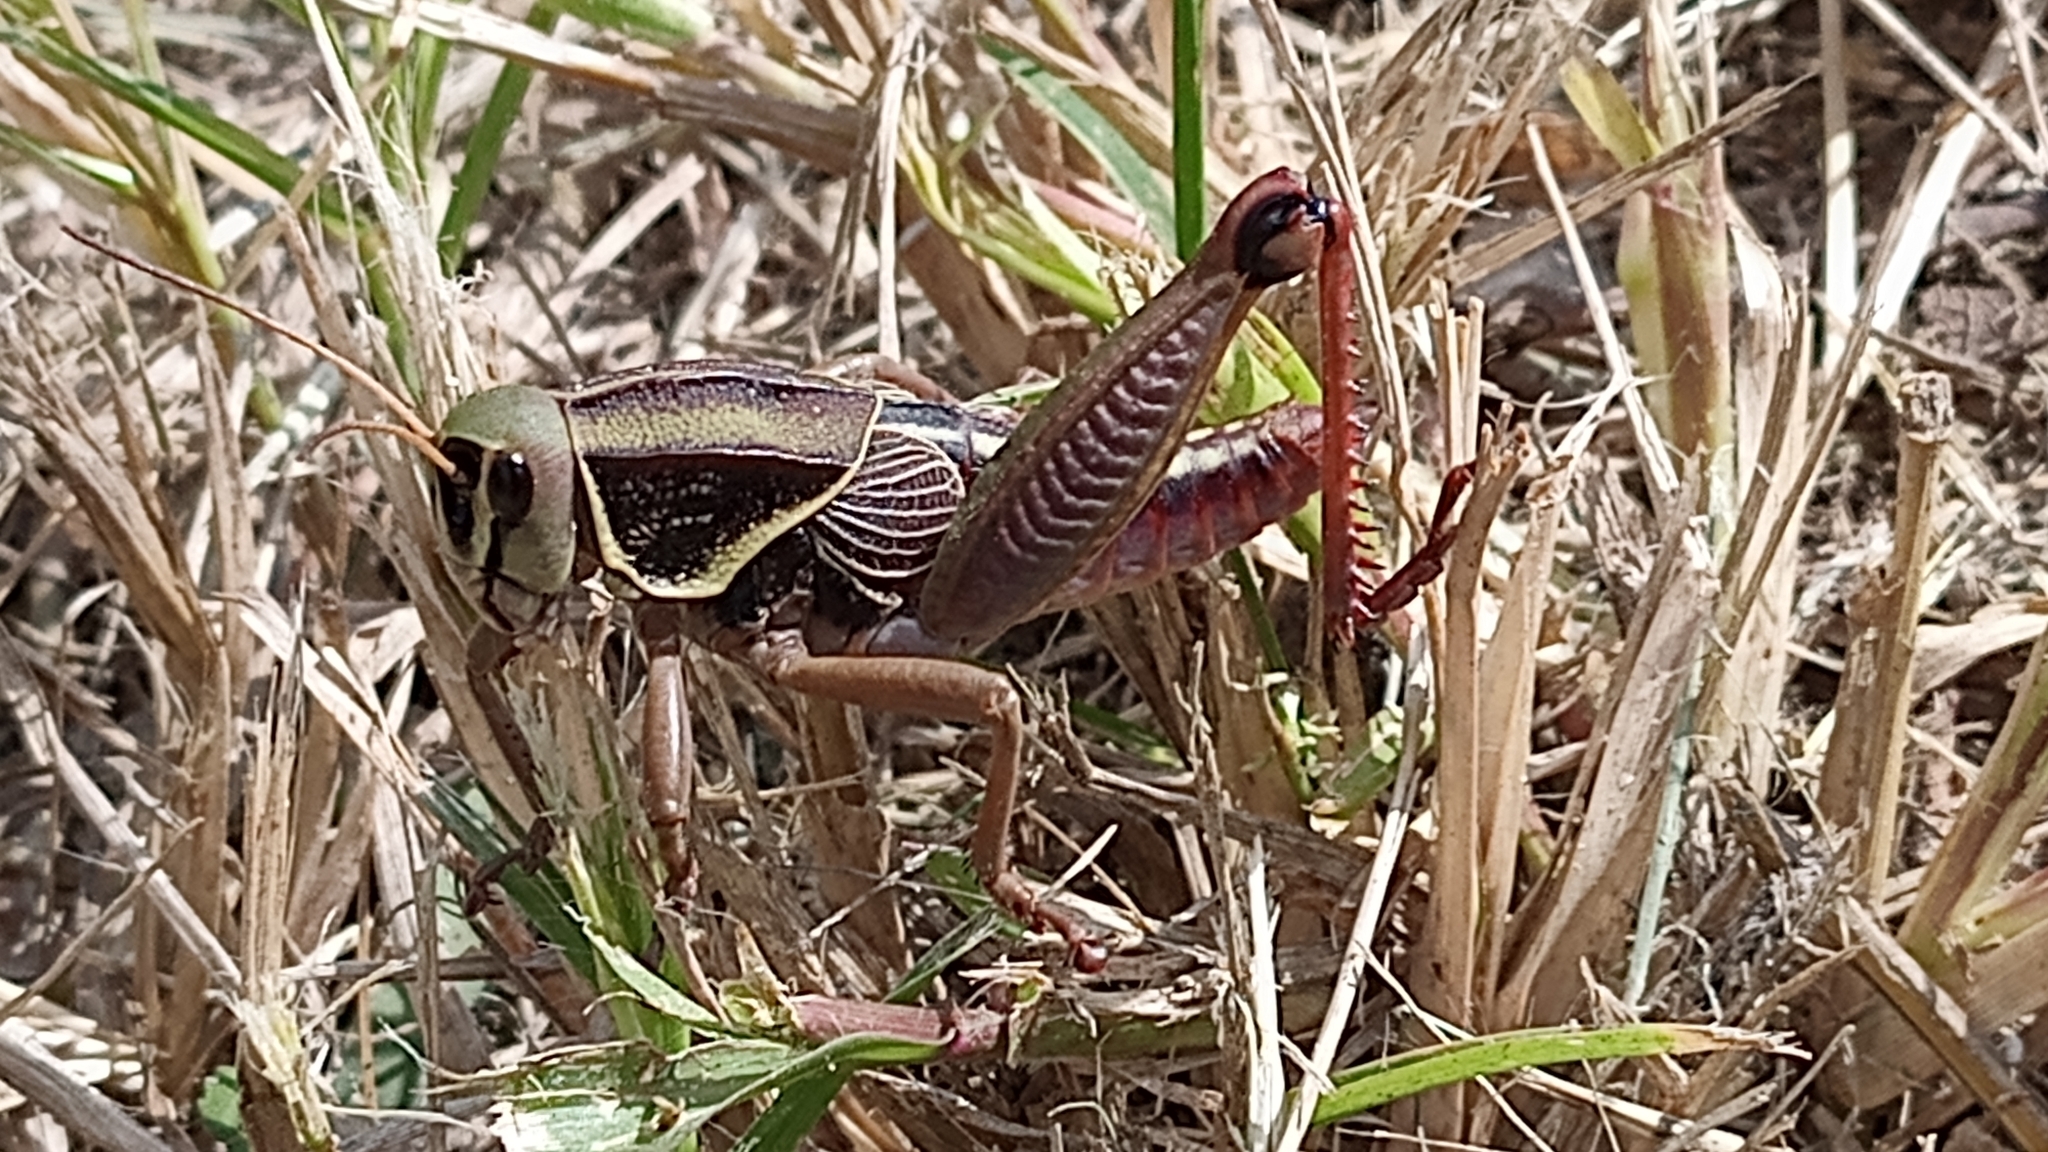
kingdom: Animalia
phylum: Arthropoda
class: Insecta
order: Orthoptera
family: Romaleidae
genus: Brachystola
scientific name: Brachystola mexicana
